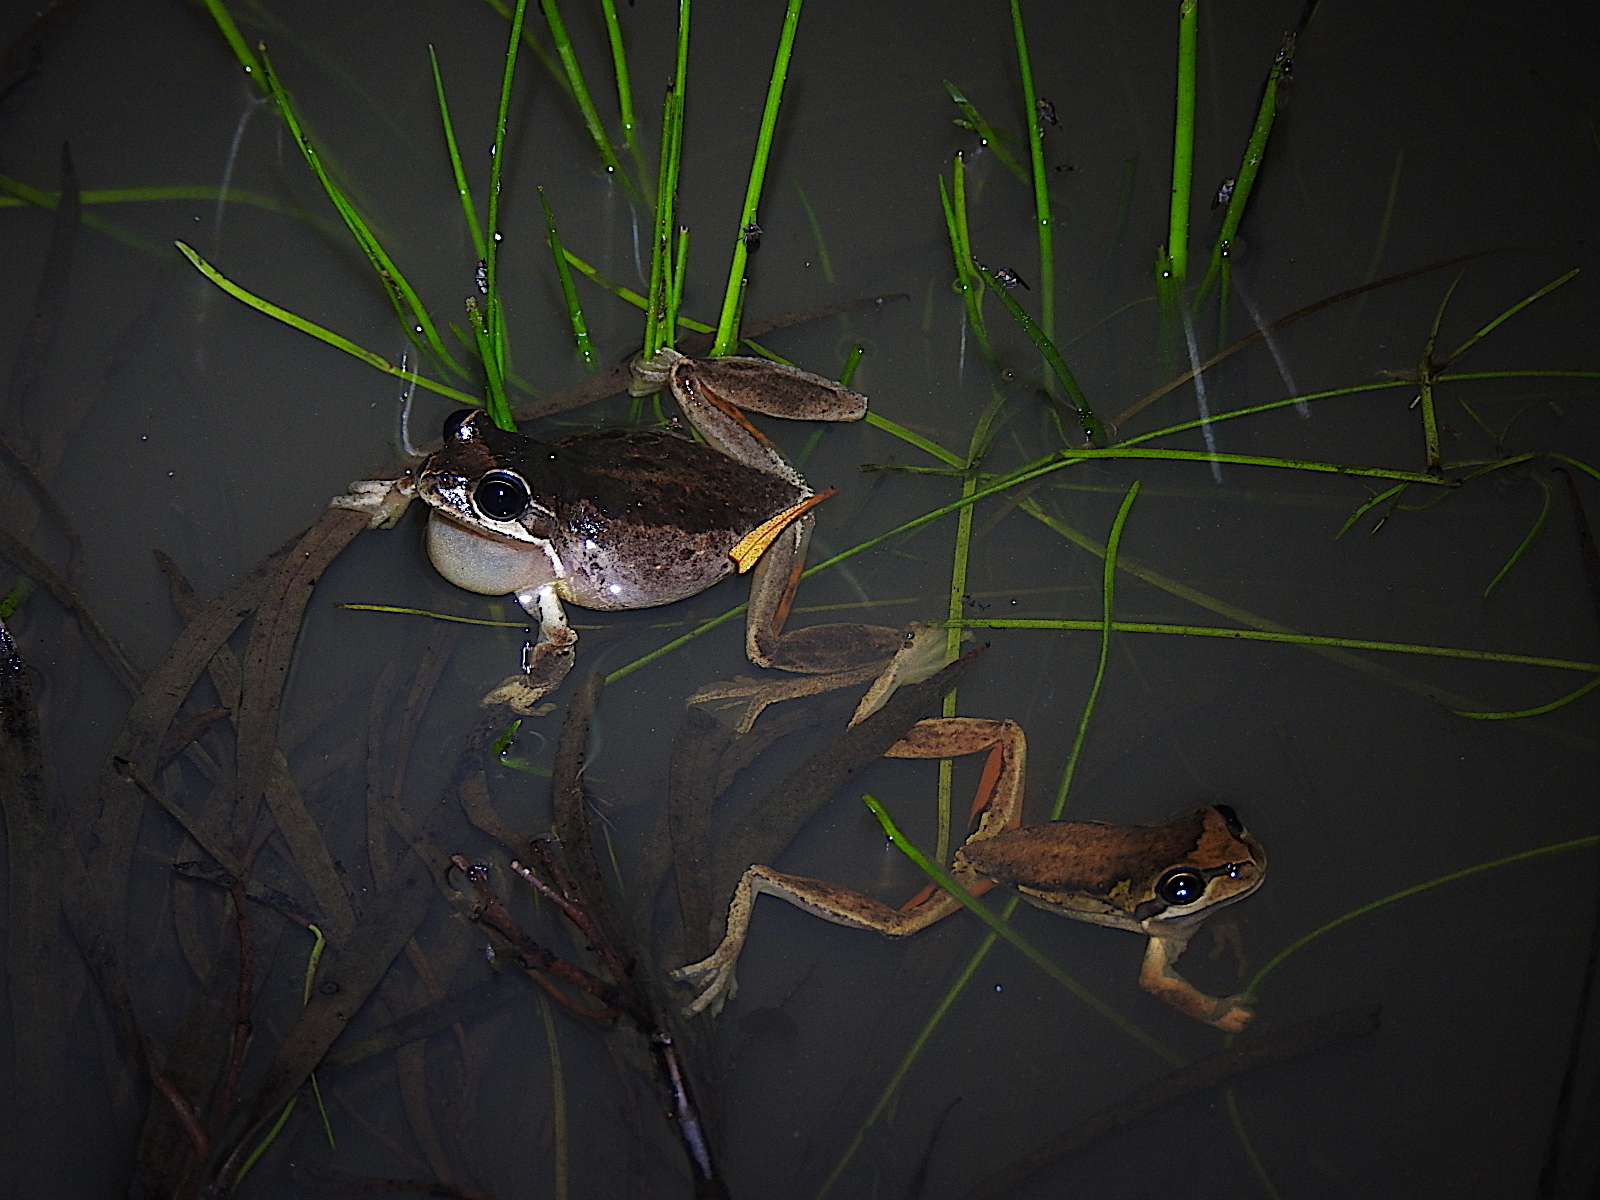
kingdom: Animalia
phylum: Chordata
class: Amphibia
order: Anura
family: Pelodryadidae
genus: Litoria
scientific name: Litoria ewingii
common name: Southern brown tree frog
